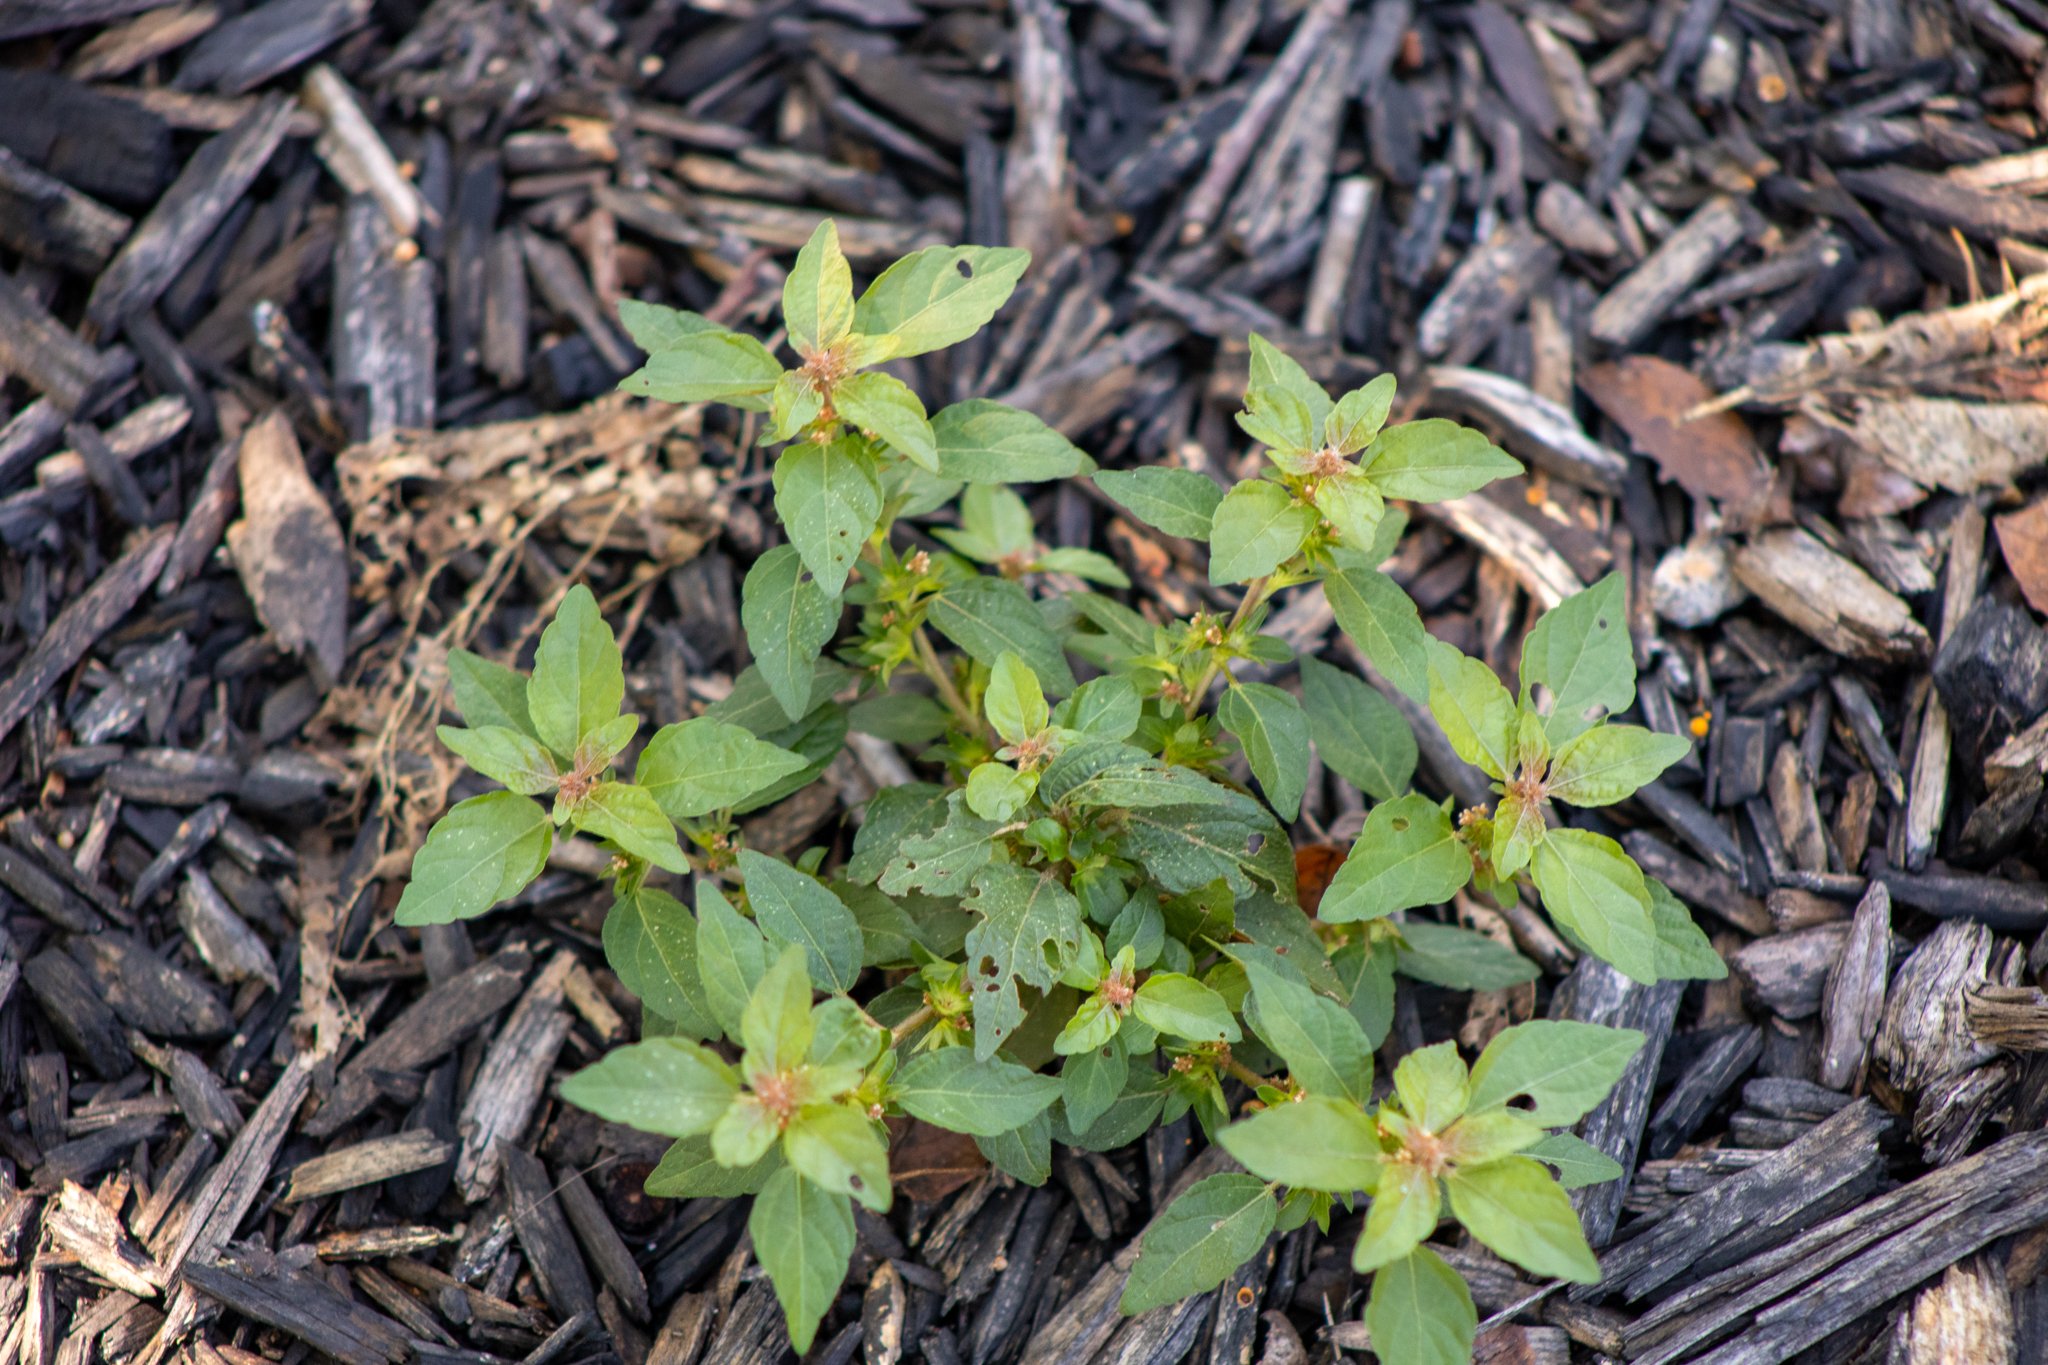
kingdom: Plantae
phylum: Tracheophyta
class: Magnoliopsida
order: Malpighiales
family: Euphorbiaceae
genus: Acalypha
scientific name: Acalypha rhomboidea
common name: Rhombic copperleaf
